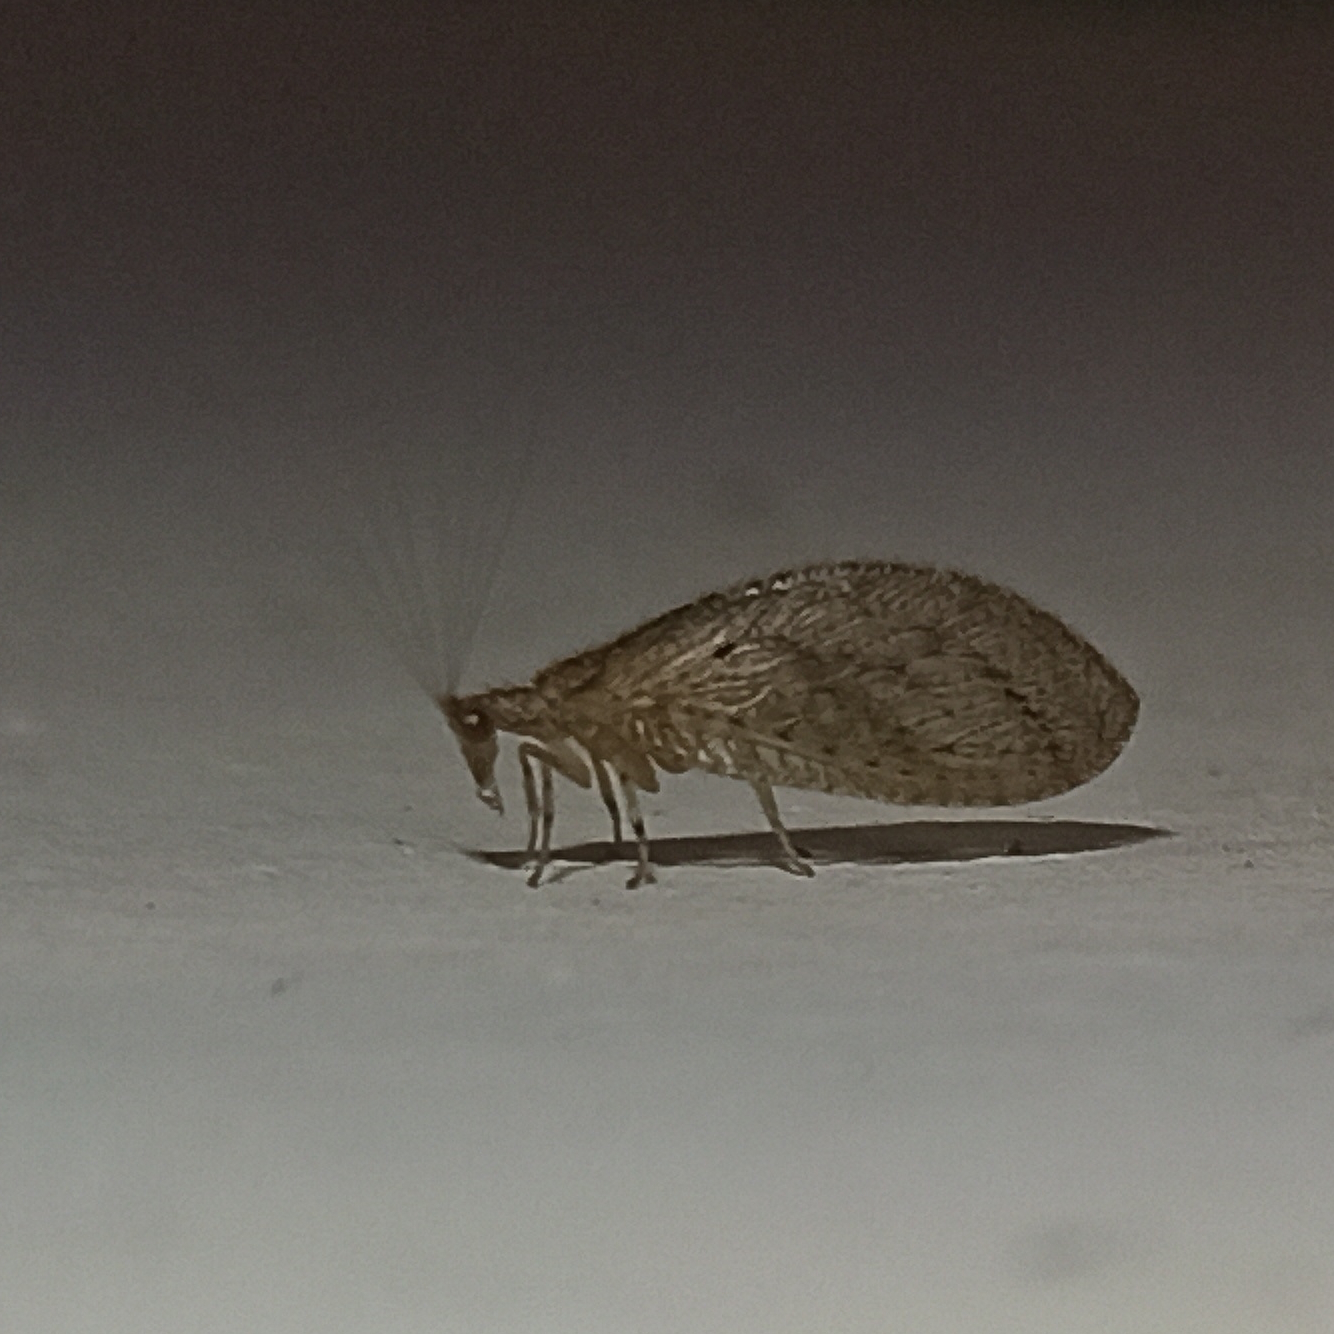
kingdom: Animalia
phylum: Arthropoda
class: Insecta
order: Neuroptera
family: Hemerobiidae
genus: Nusalala
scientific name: Nusalala tessellata
